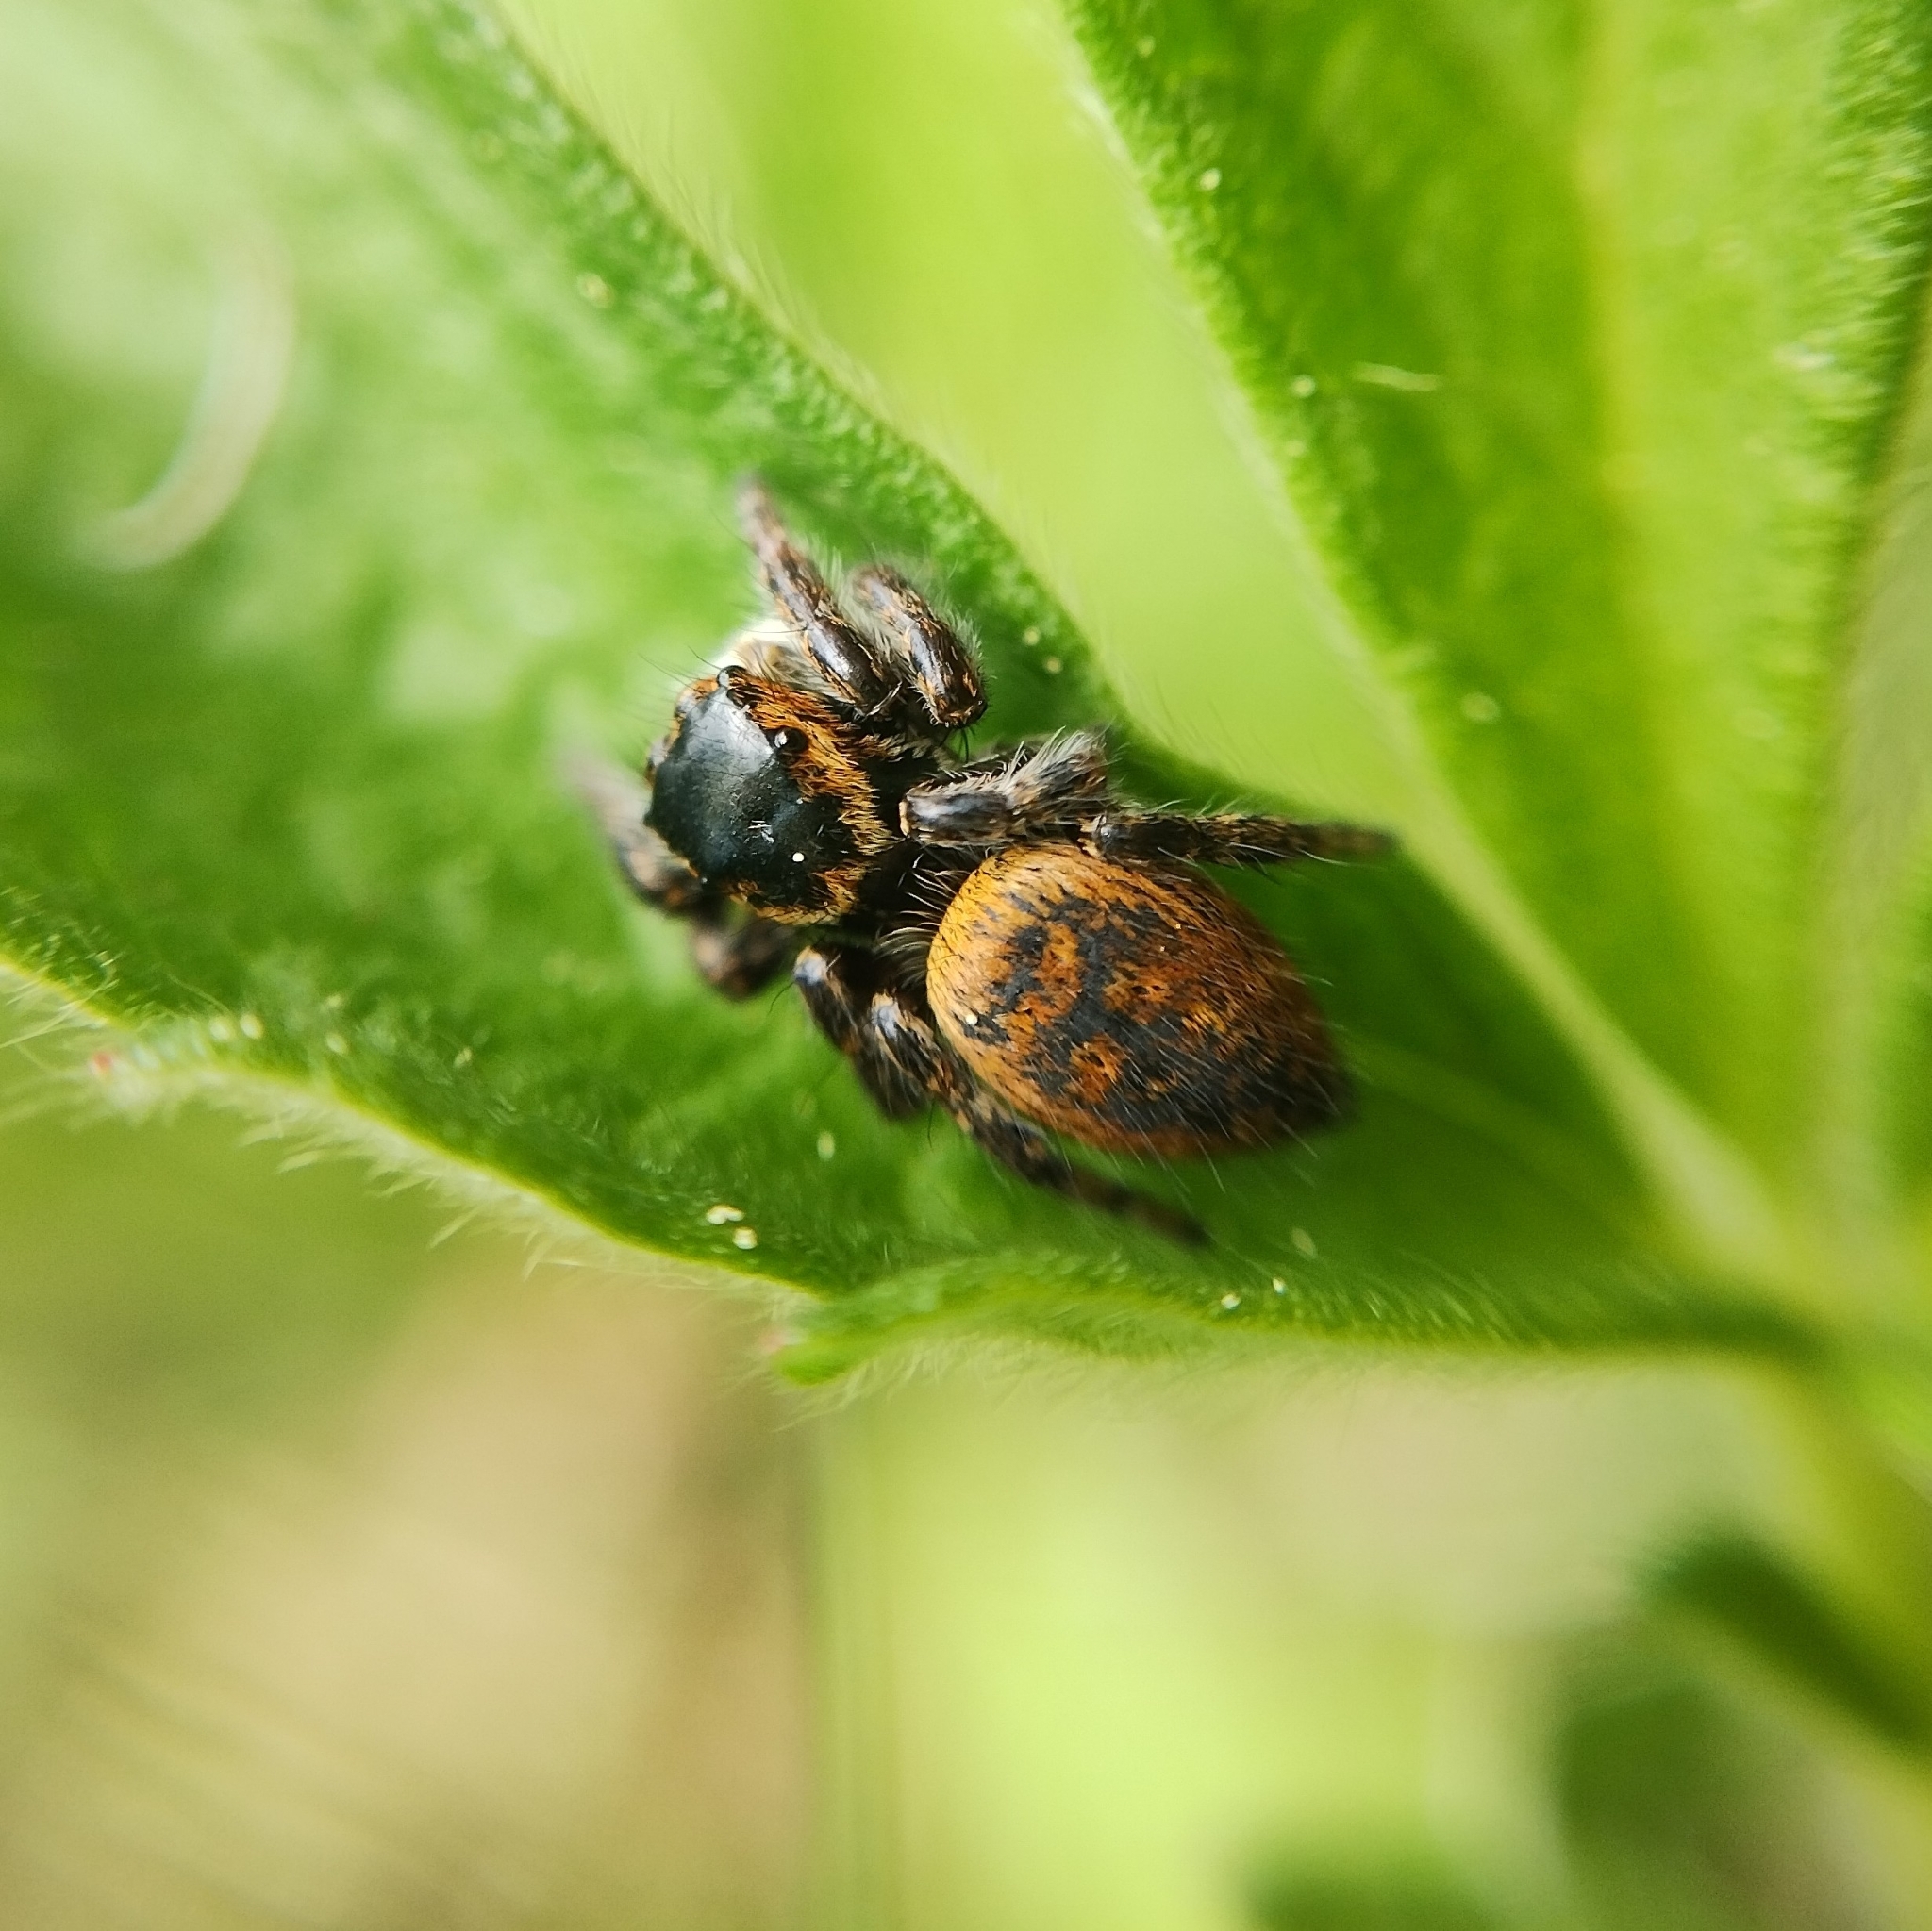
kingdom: Animalia
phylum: Arthropoda
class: Arachnida
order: Araneae
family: Salticidae
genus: Carrhotus
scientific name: Carrhotus xanthogramma
